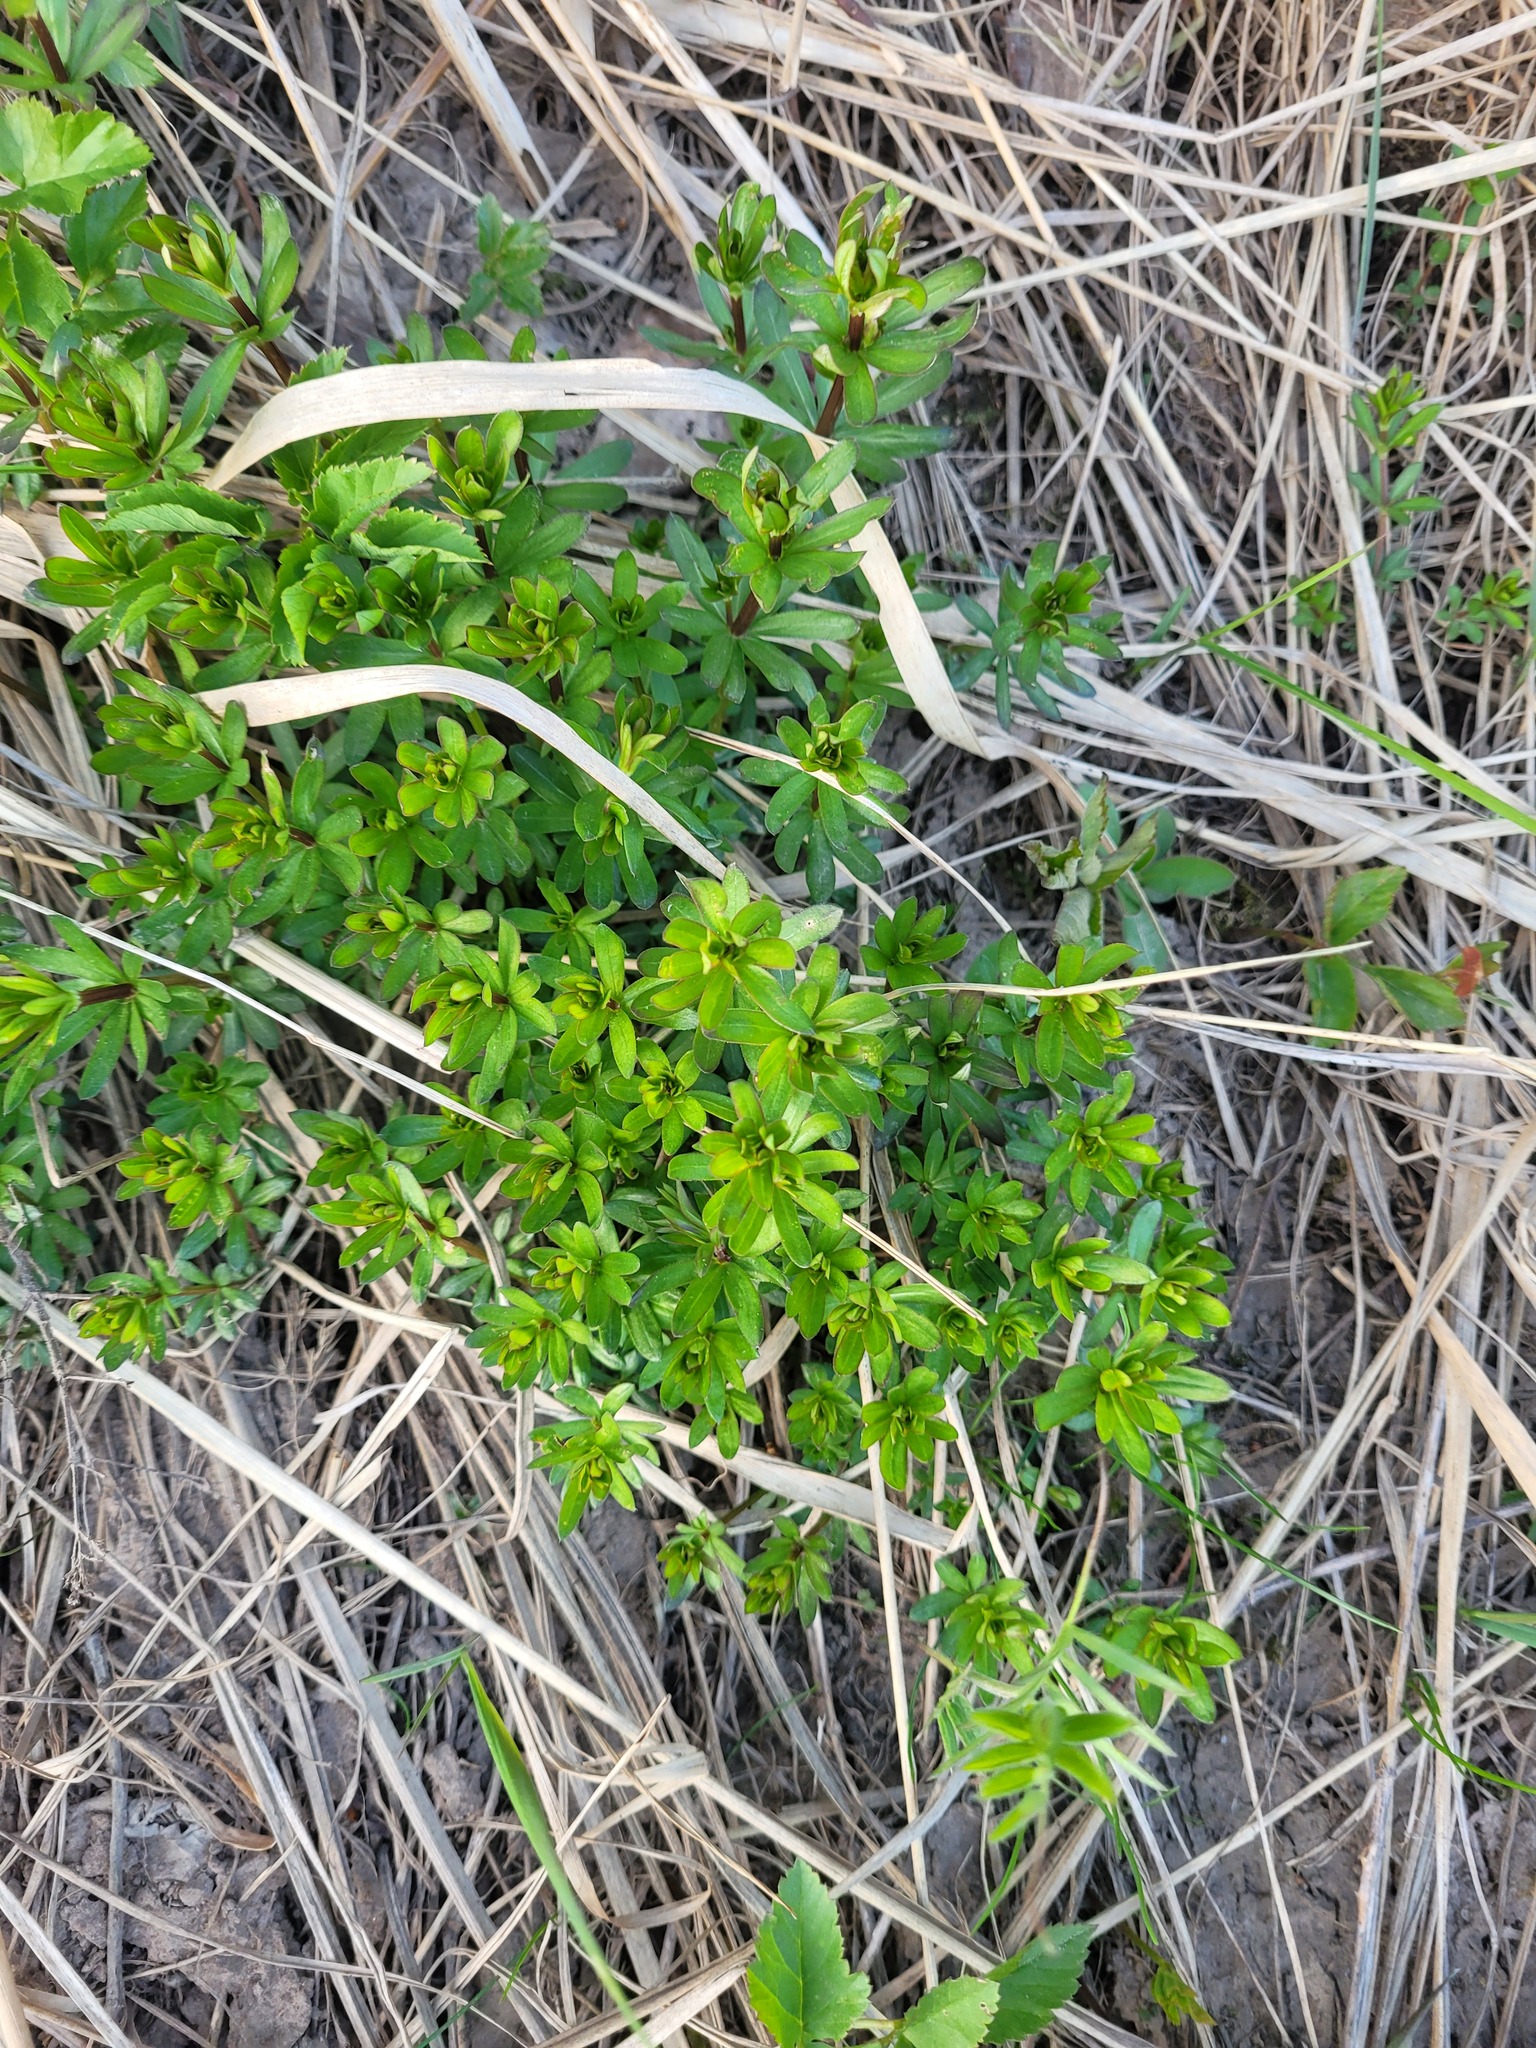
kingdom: Plantae
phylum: Tracheophyta
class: Magnoliopsida
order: Gentianales
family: Rubiaceae
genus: Galium
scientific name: Galium mollugo
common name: Hedge bedstraw
